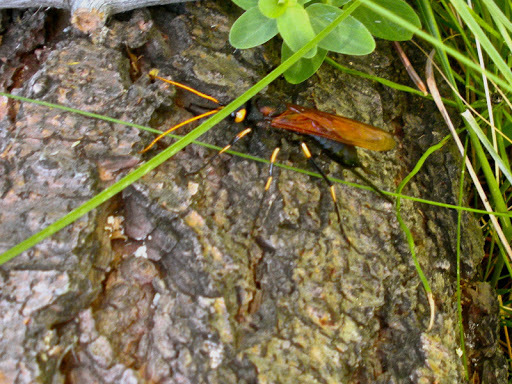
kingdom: Animalia
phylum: Arthropoda
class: Insecta
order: Hymenoptera
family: Siricidae
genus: Urocerus
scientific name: Urocerus californicus
